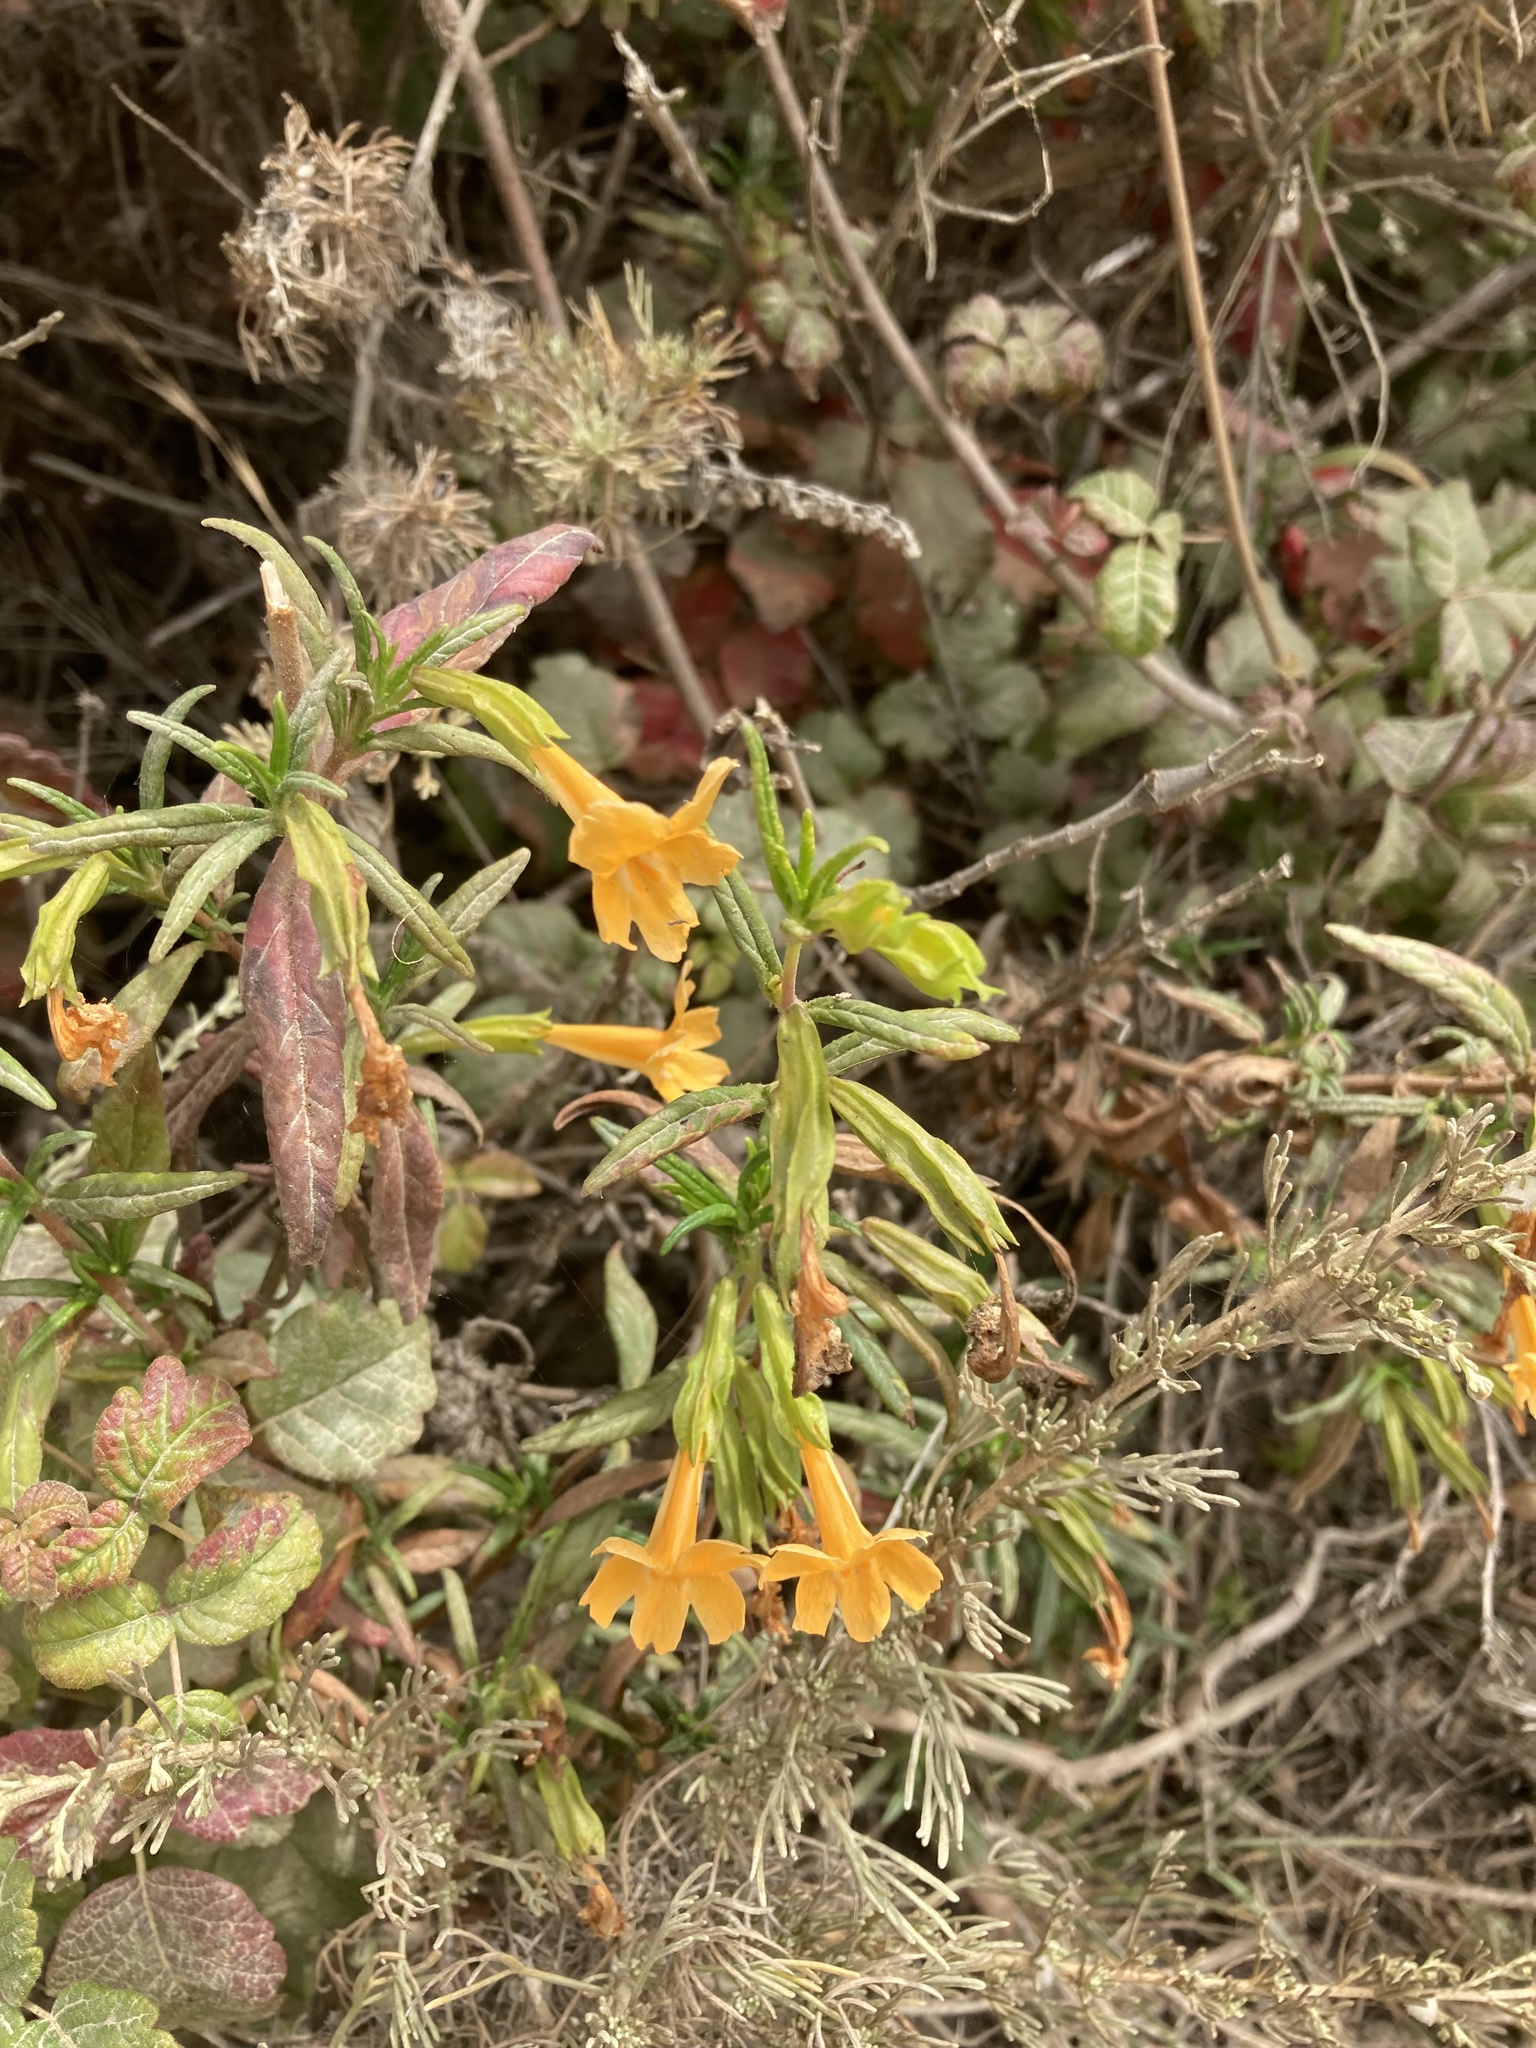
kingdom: Plantae
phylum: Tracheophyta
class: Magnoliopsida
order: Lamiales
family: Phrymaceae
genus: Diplacus
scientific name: Diplacus aurantiacus
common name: Bush monkey-flower
